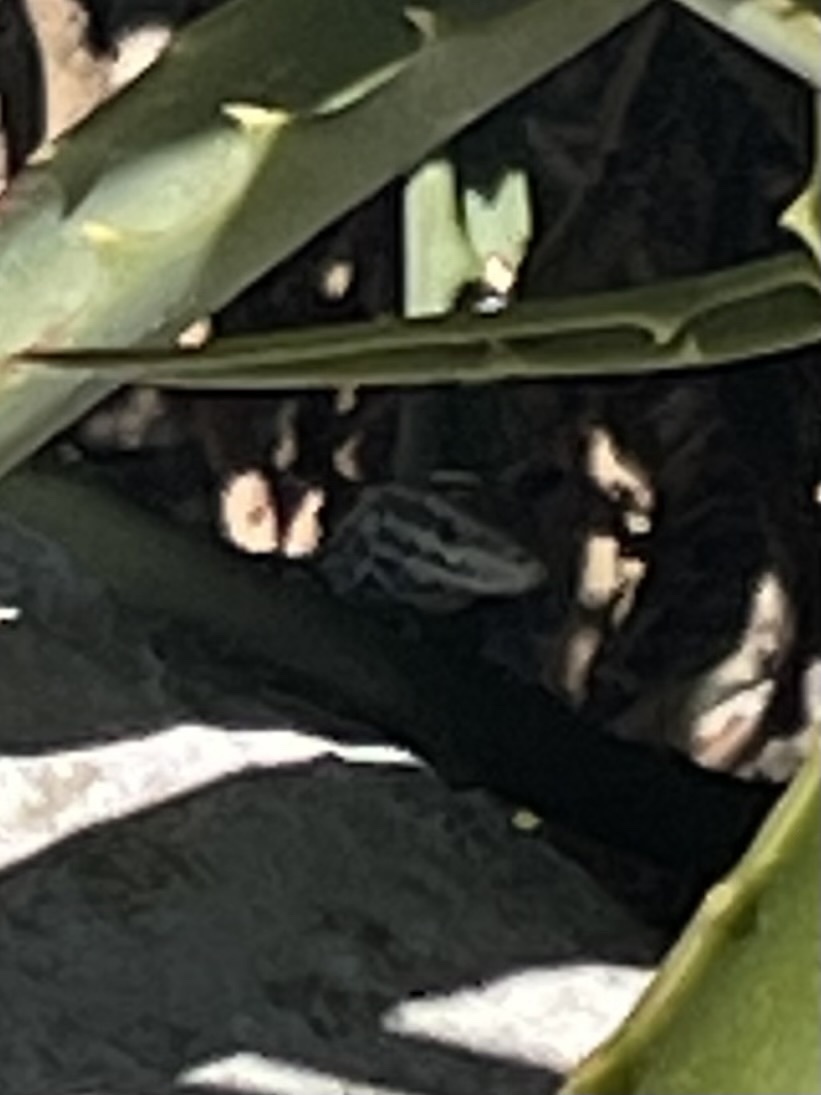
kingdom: Animalia
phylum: Chordata
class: Squamata
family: Lacertidae
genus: Podarcis
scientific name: Podarcis milensis
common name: Milos wall lizard
